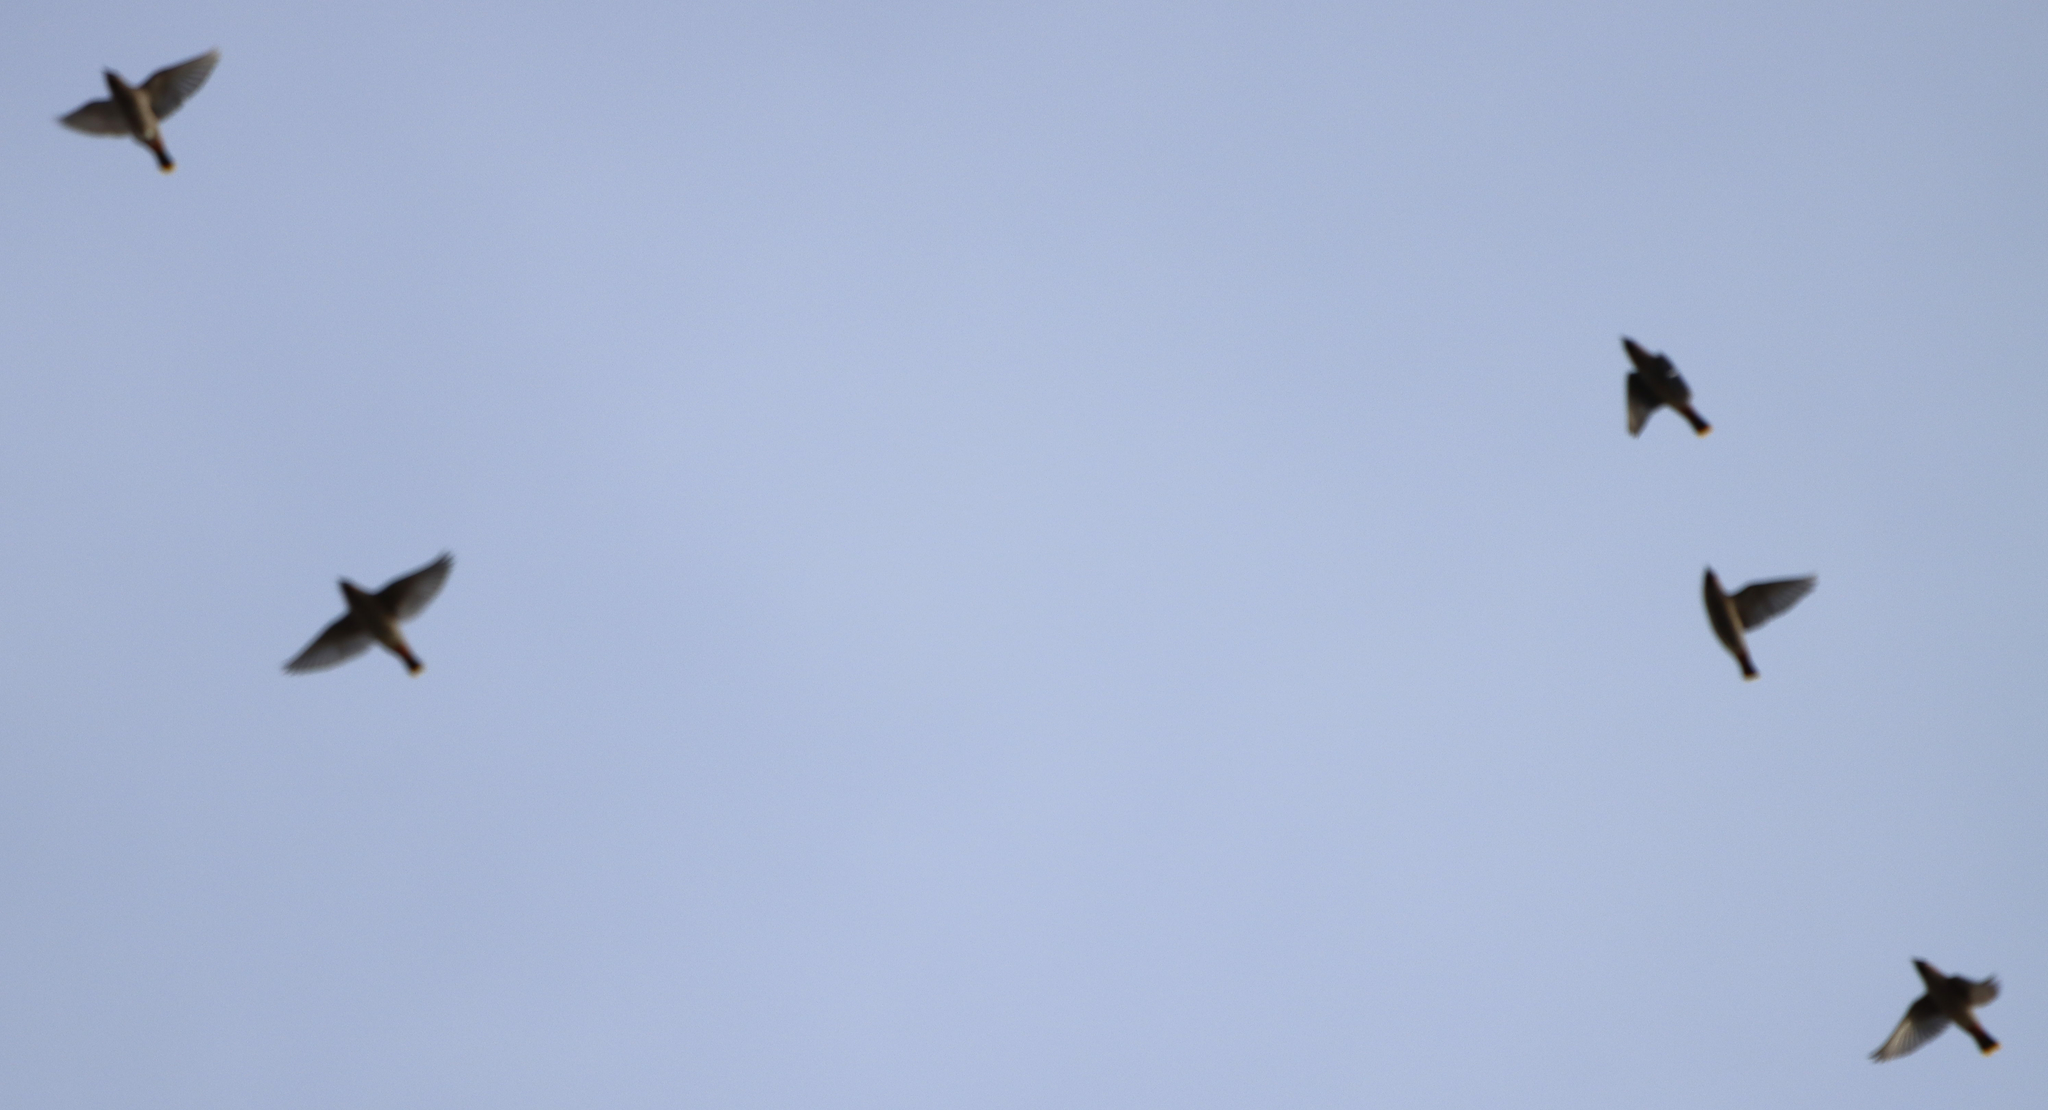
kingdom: Animalia
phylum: Chordata
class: Aves
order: Passeriformes
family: Bombycillidae
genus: Bombycilla
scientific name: Bombycilla garrulus
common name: Bohemian waxwing
